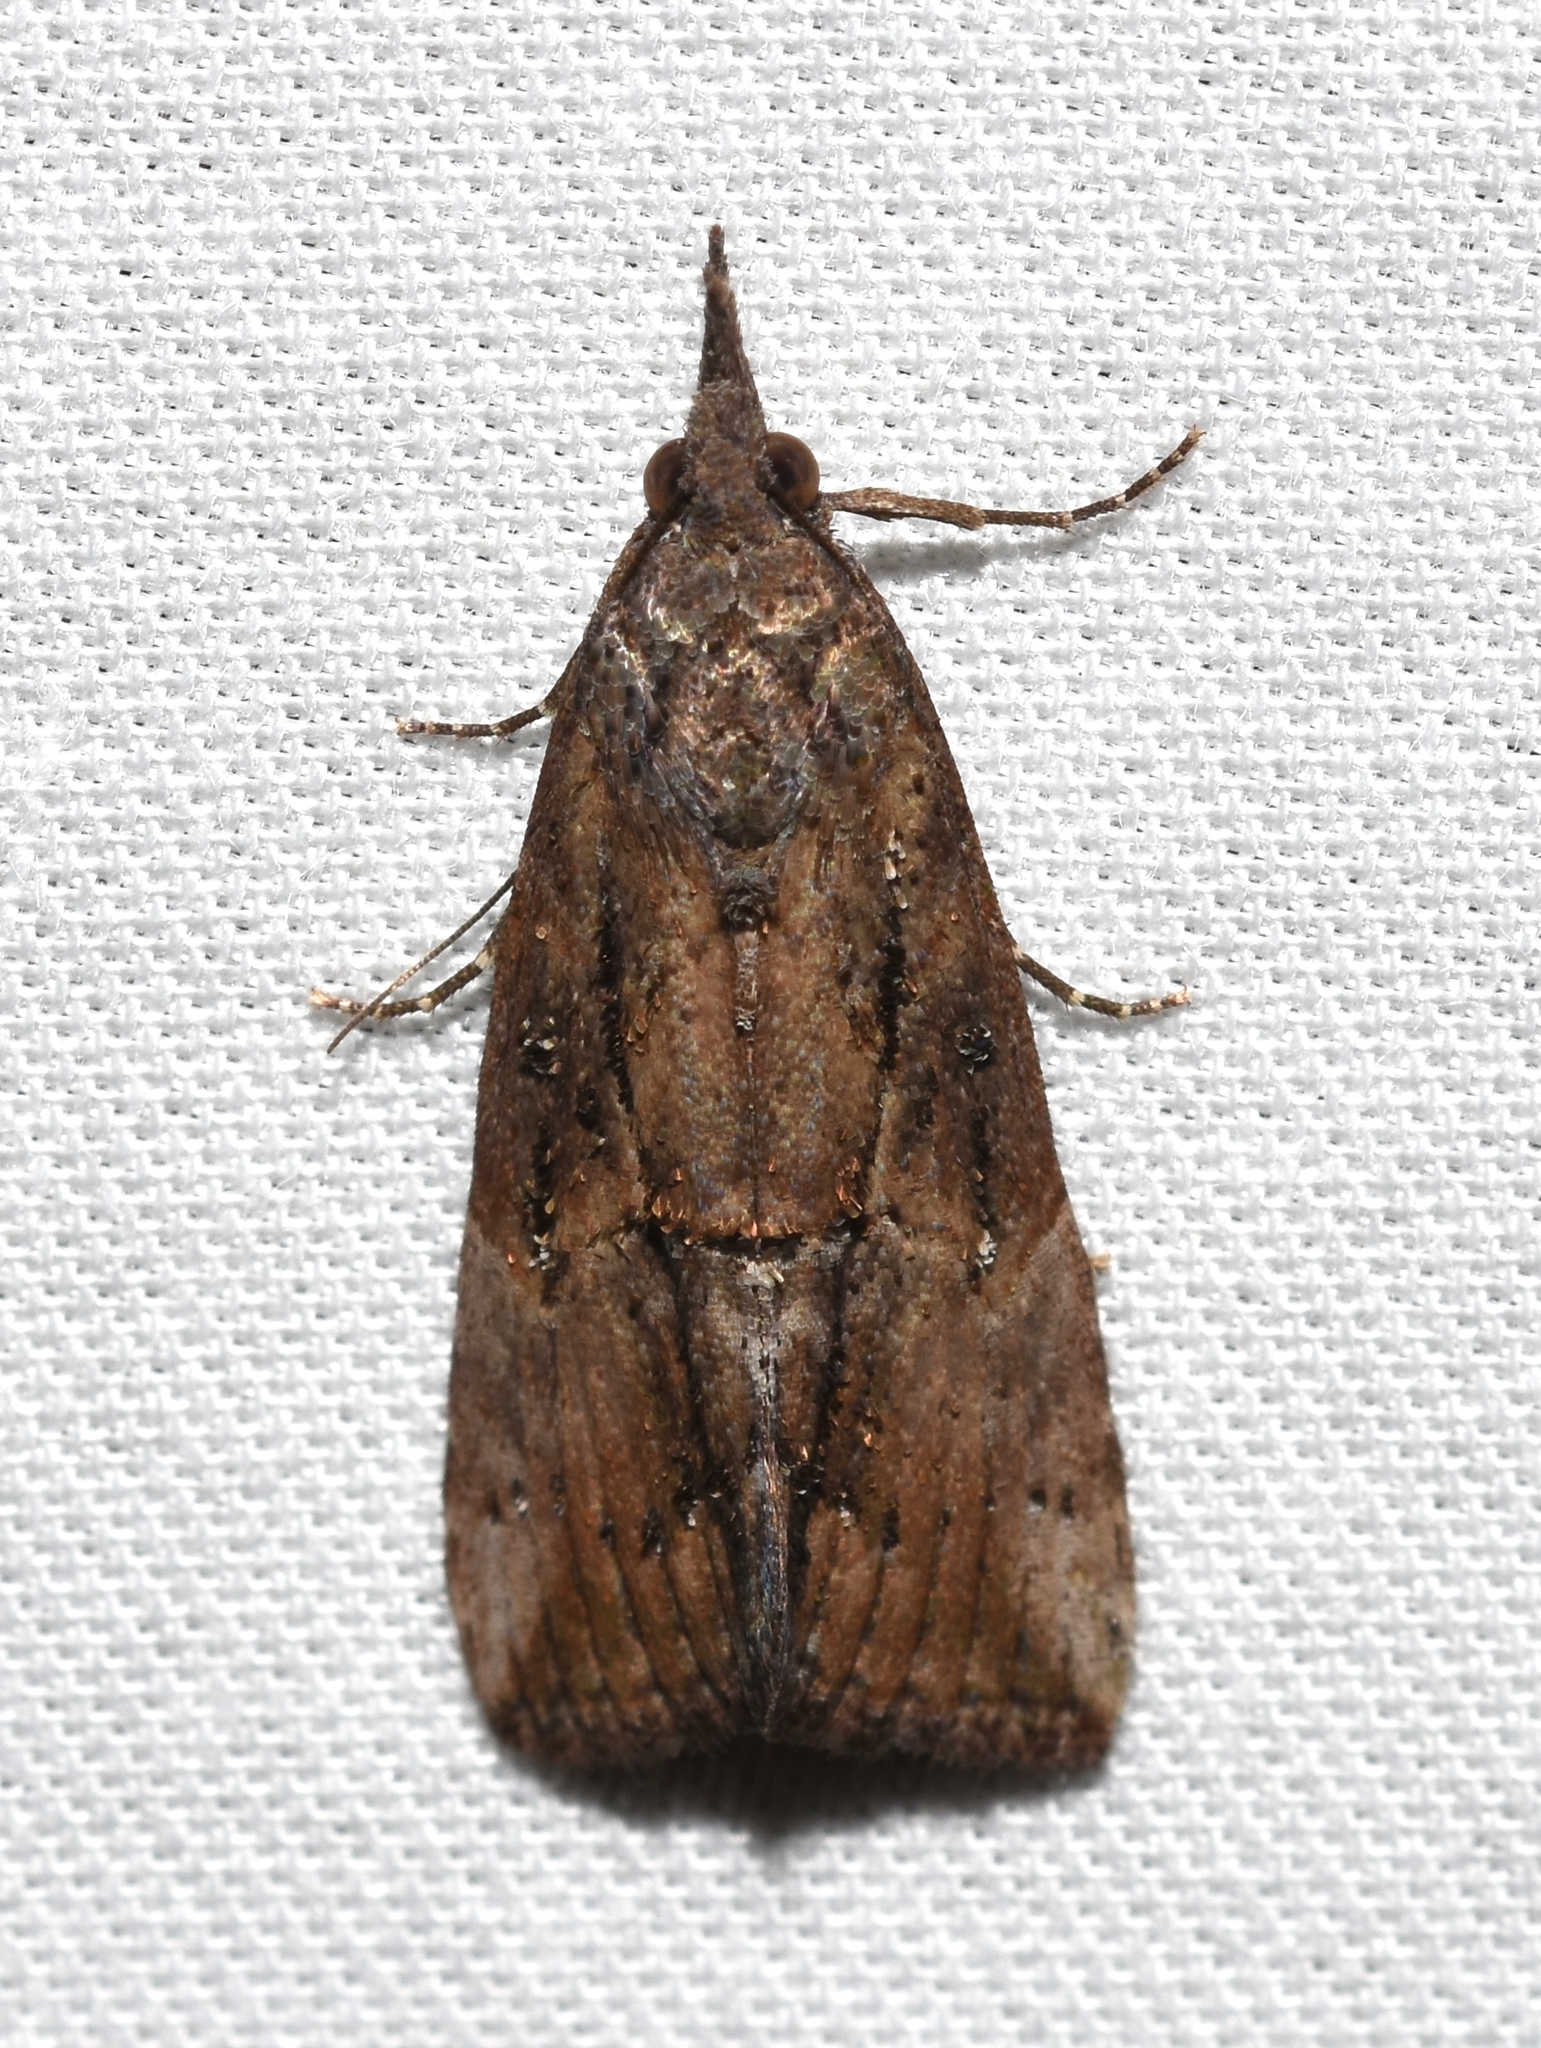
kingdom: Animalia
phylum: Arthropoda
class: Insecta
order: Lepidoptera
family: Erebidae
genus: Hypena
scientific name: Hypena scabra
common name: Green cloverworm
